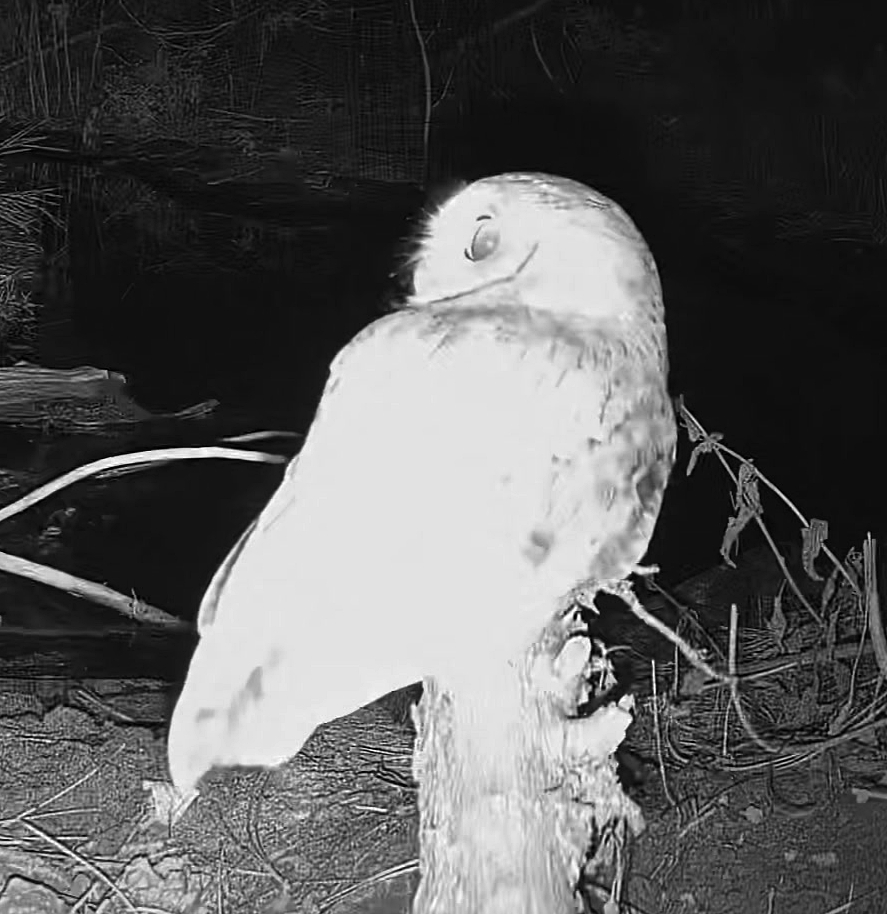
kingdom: Animalia
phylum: Chordata
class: Aves
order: Strigiformes
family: Strigidae
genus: Megascops
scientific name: Megascops asio
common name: Eastern screech-owl
